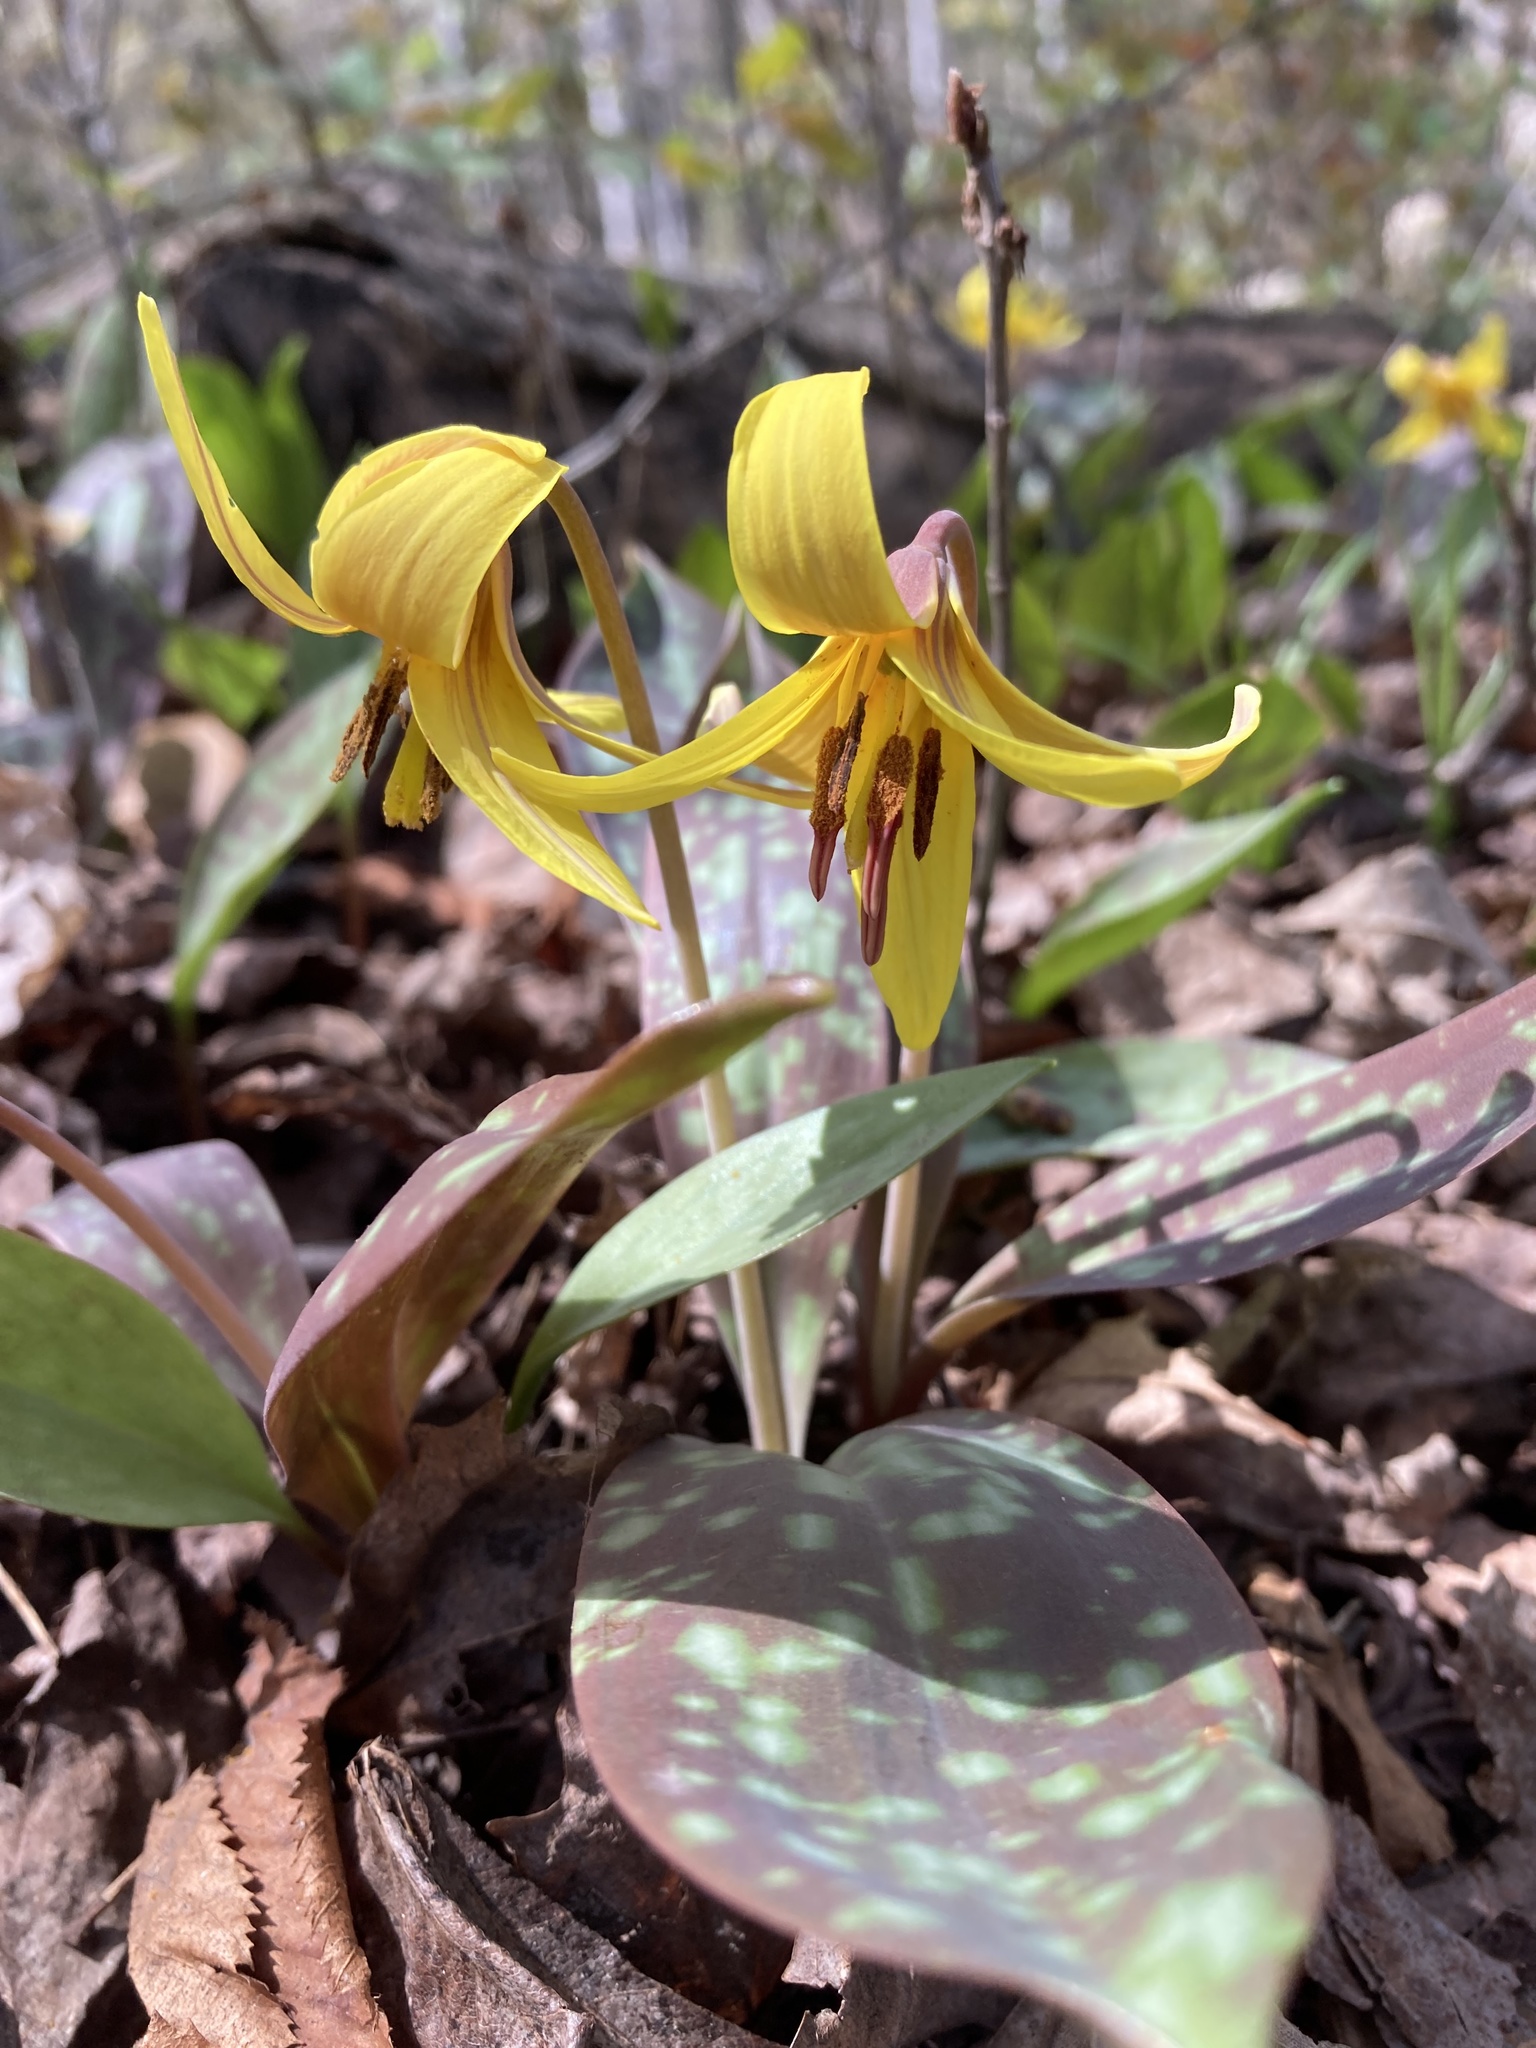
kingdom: Plantae
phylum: Tracheophyta
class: Liliopsida
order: Liliales
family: Liliaceae
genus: Erythronium
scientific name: Erythronium americanum
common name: Yellow adder's-tongue
